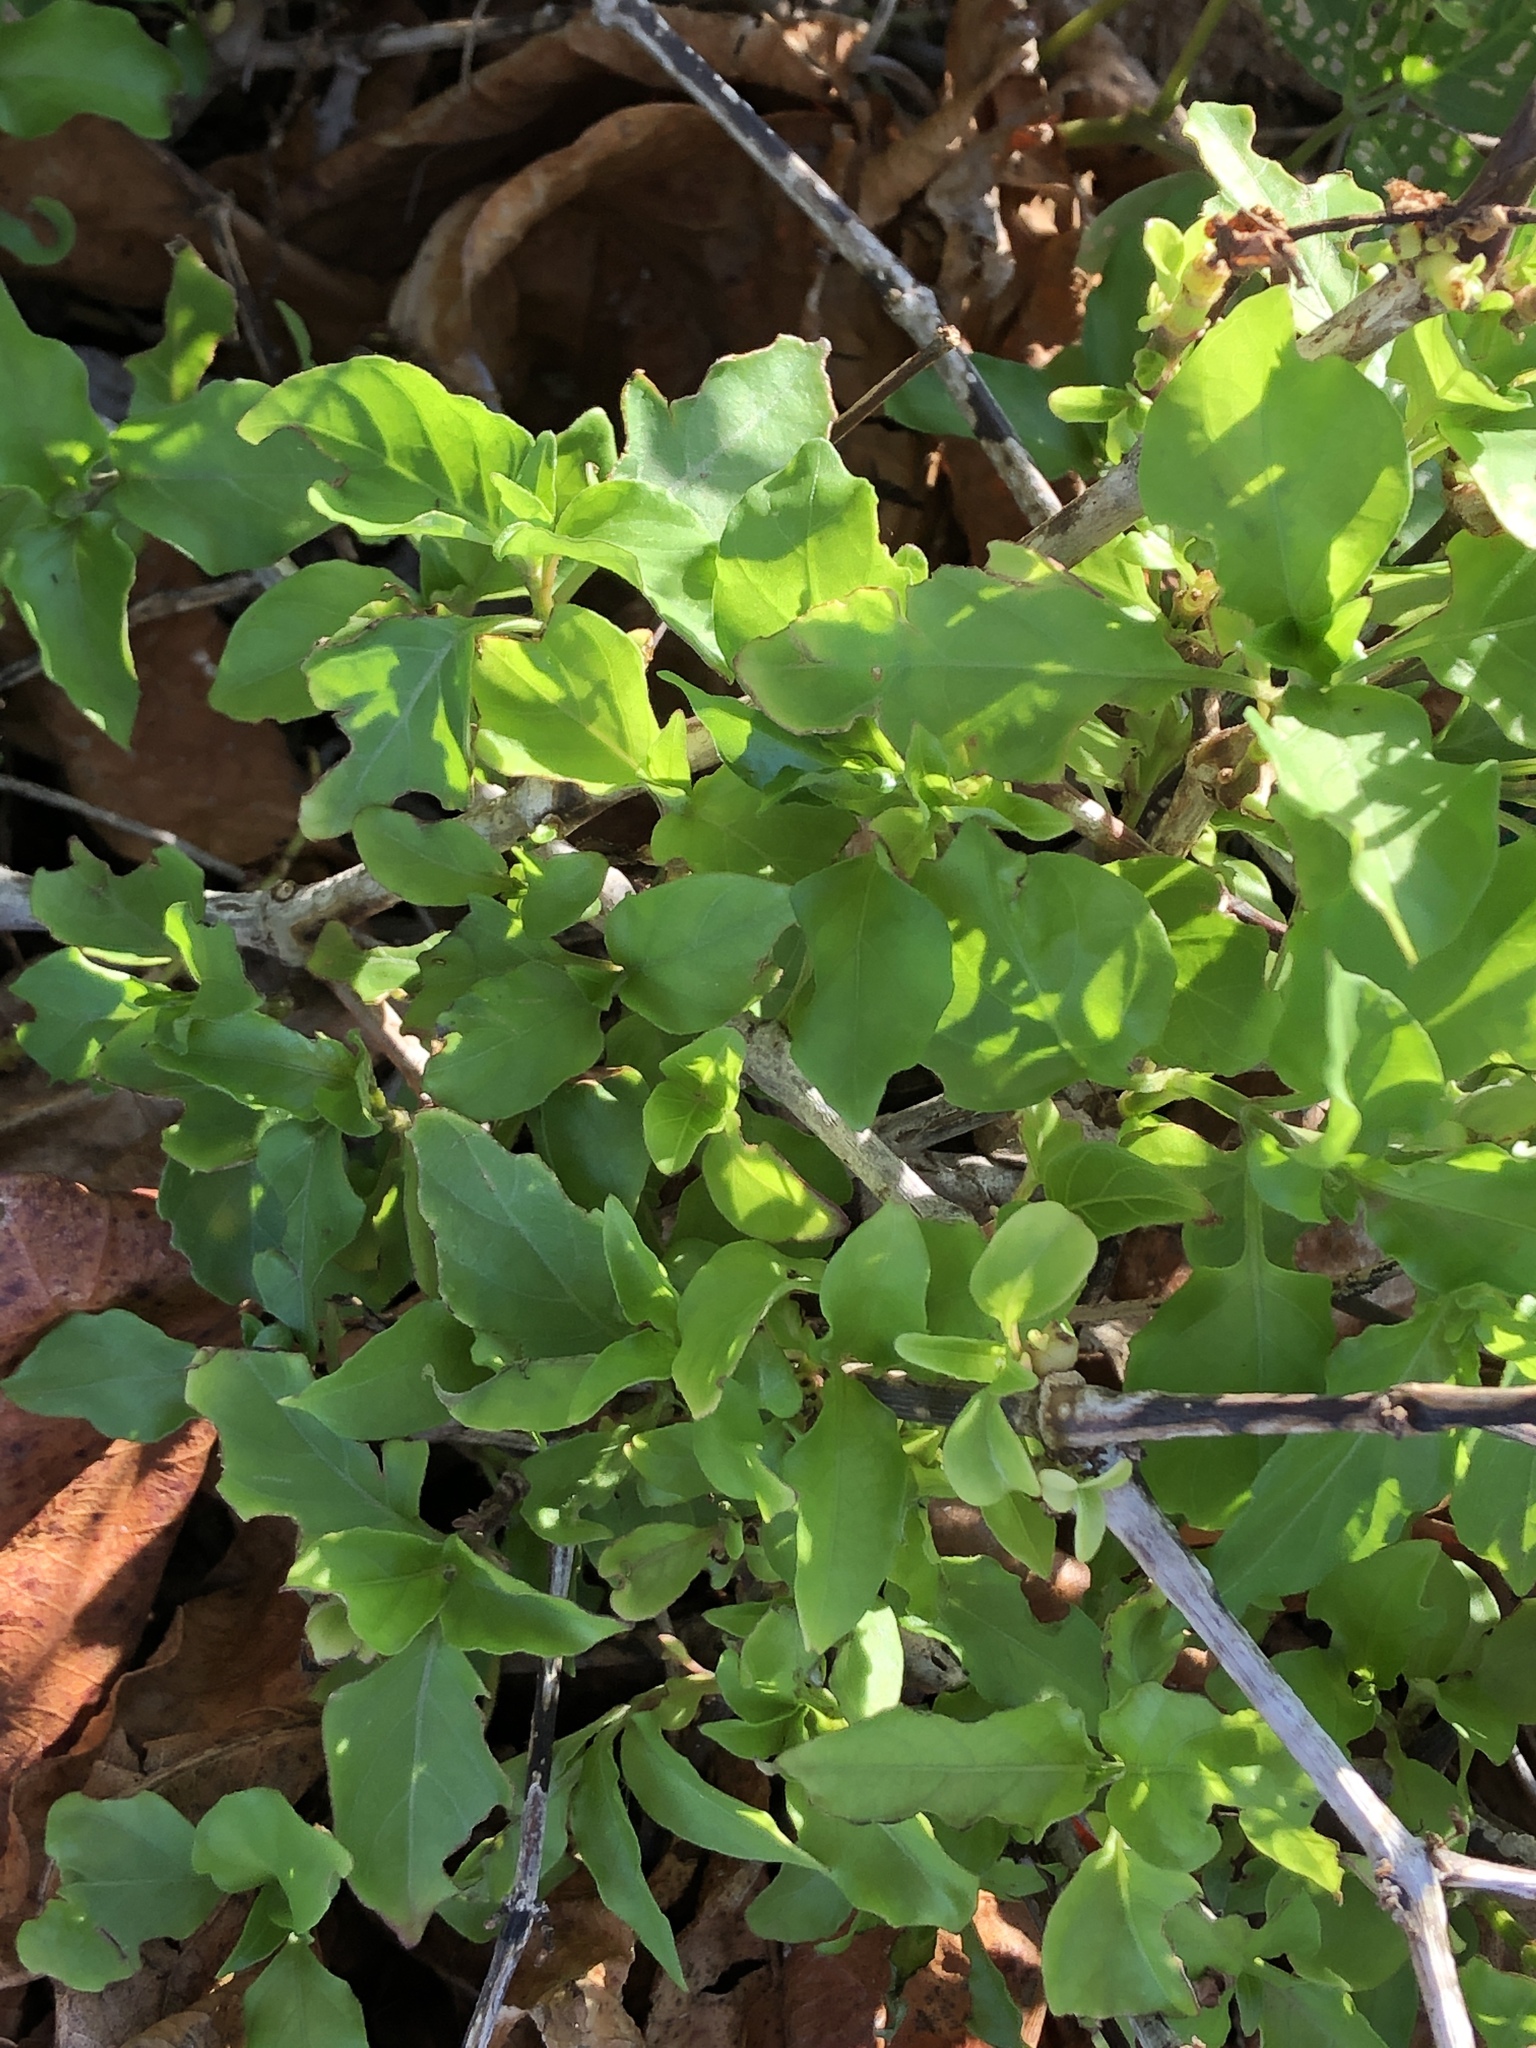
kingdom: Plantae
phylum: Tracheophyta
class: Magnoliopsida
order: Lamiales
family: Acanthaceae
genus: Asystasia
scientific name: Asystasia gangetica
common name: Chinese violet
